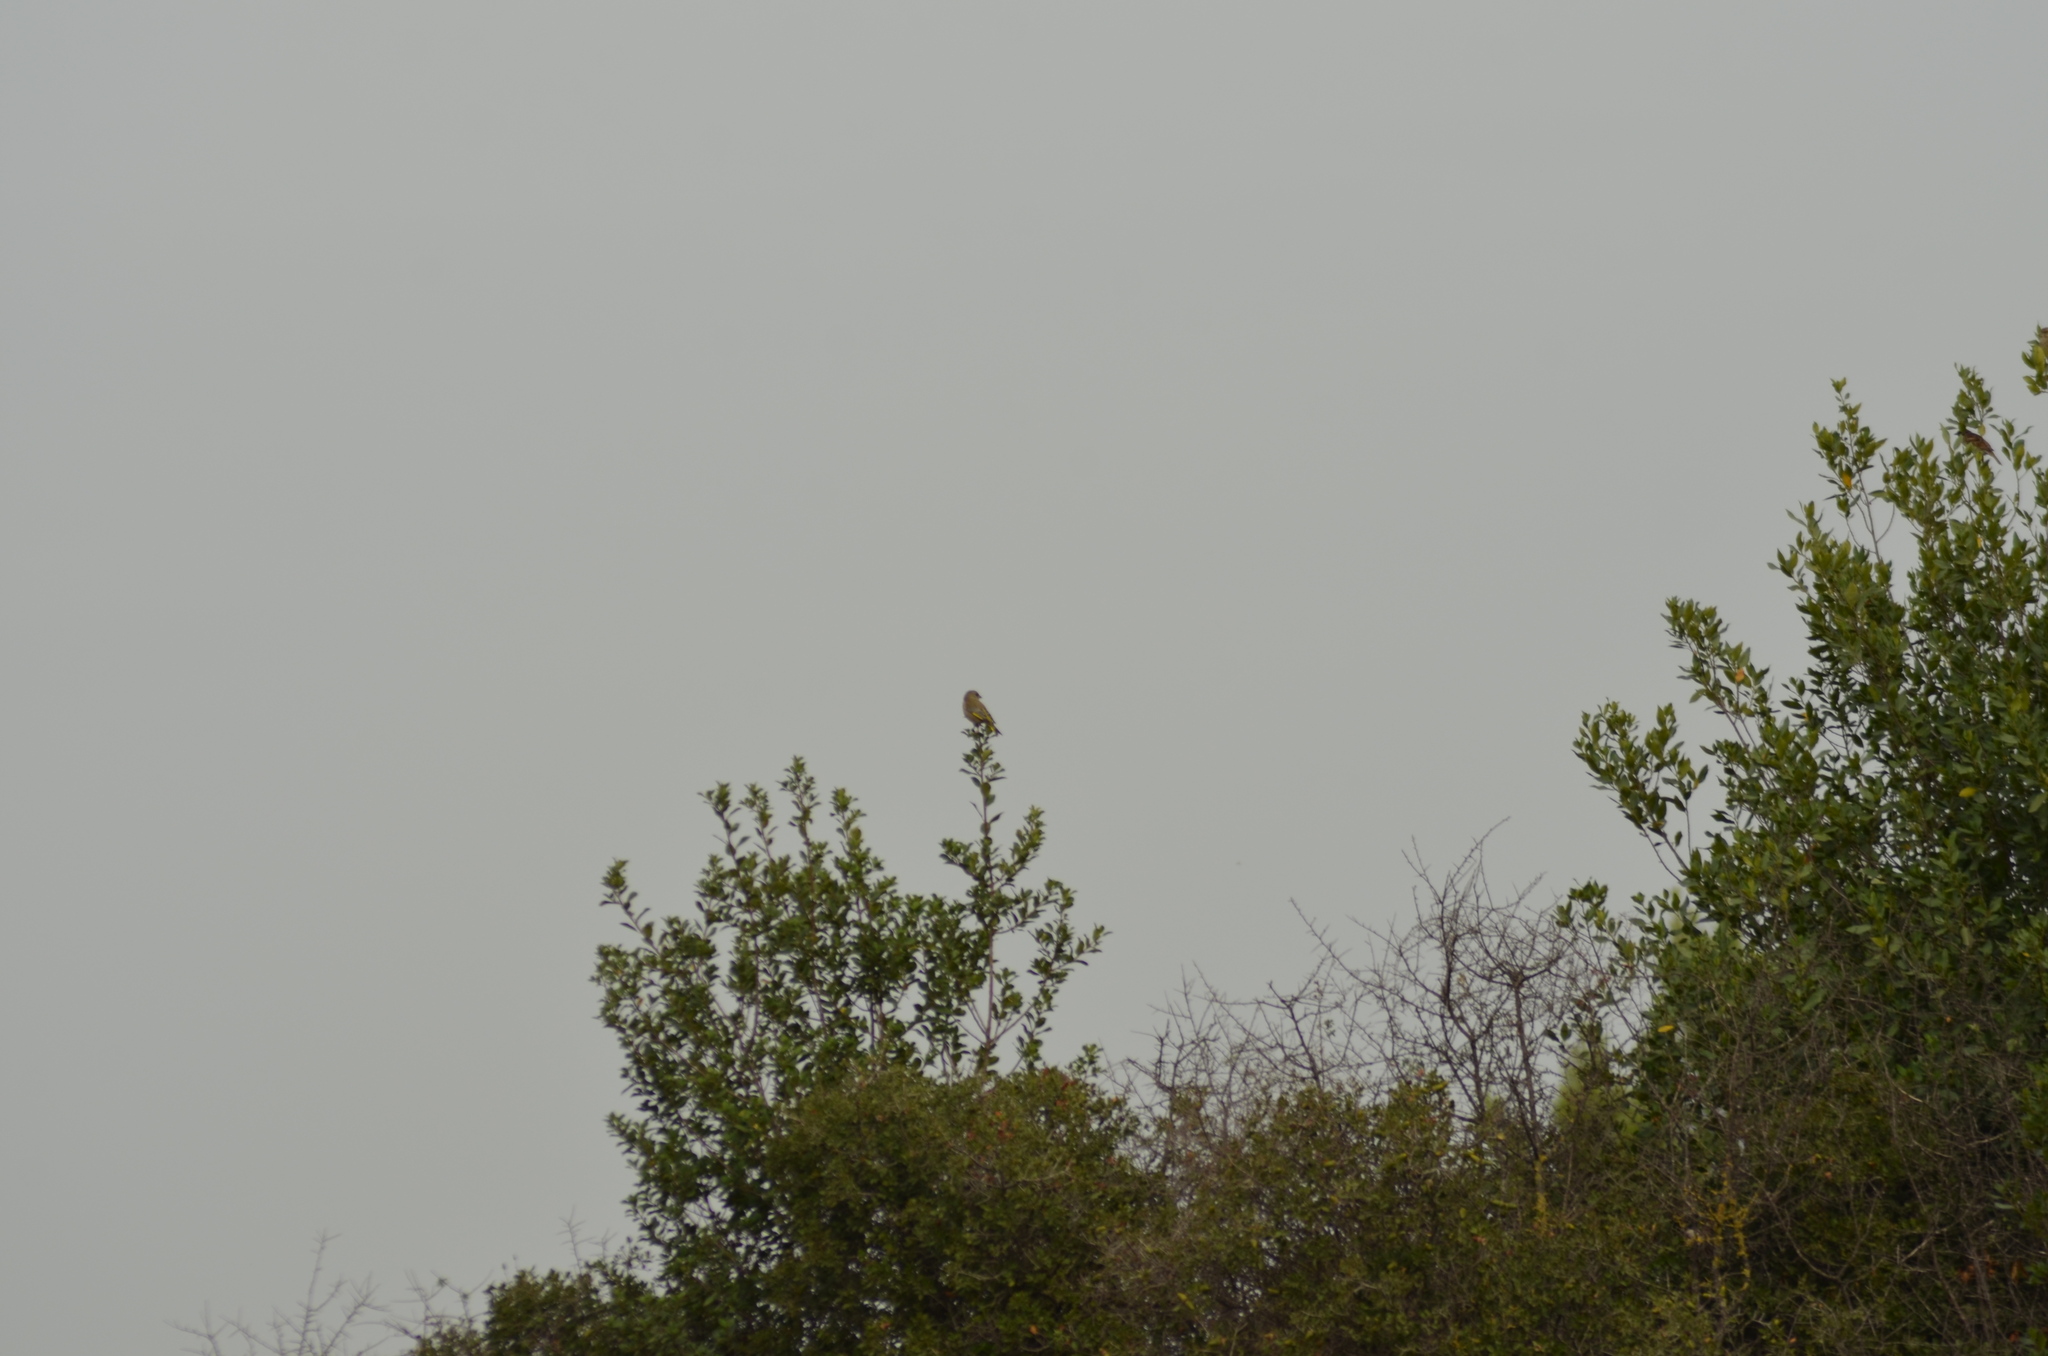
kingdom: Plantae
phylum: Tracheophyta
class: Liliopsida
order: Poales
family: Poaceae
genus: Chloris
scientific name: Chloris chloris
